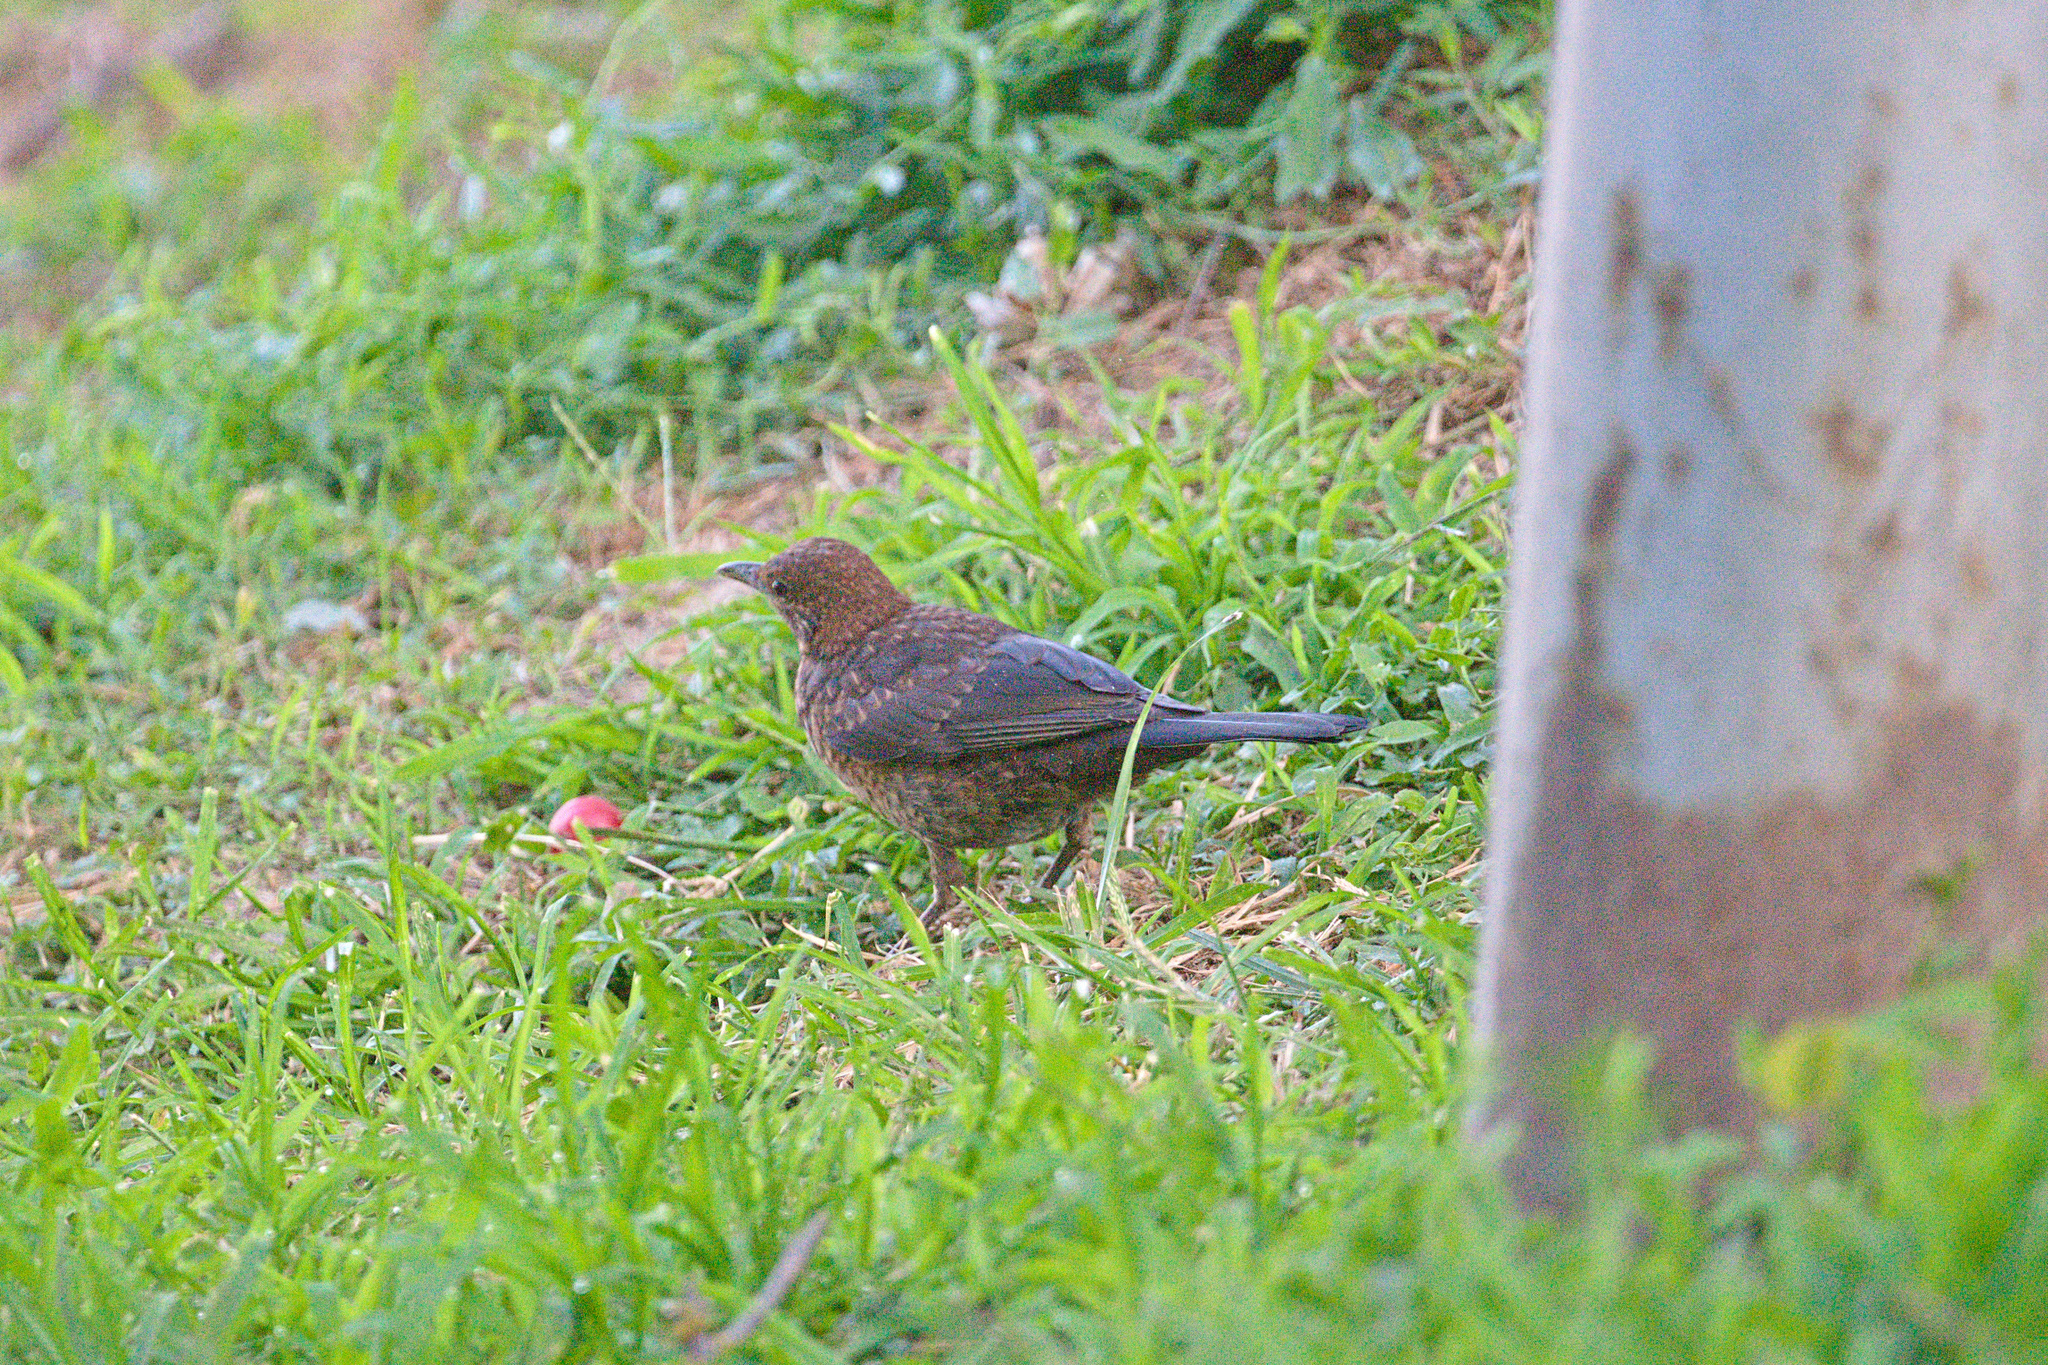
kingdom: Animalia
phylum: Chordata
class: Aves
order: Passeriformes
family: Turdidae
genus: Turdus
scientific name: Turdus merula
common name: Common blackbird
